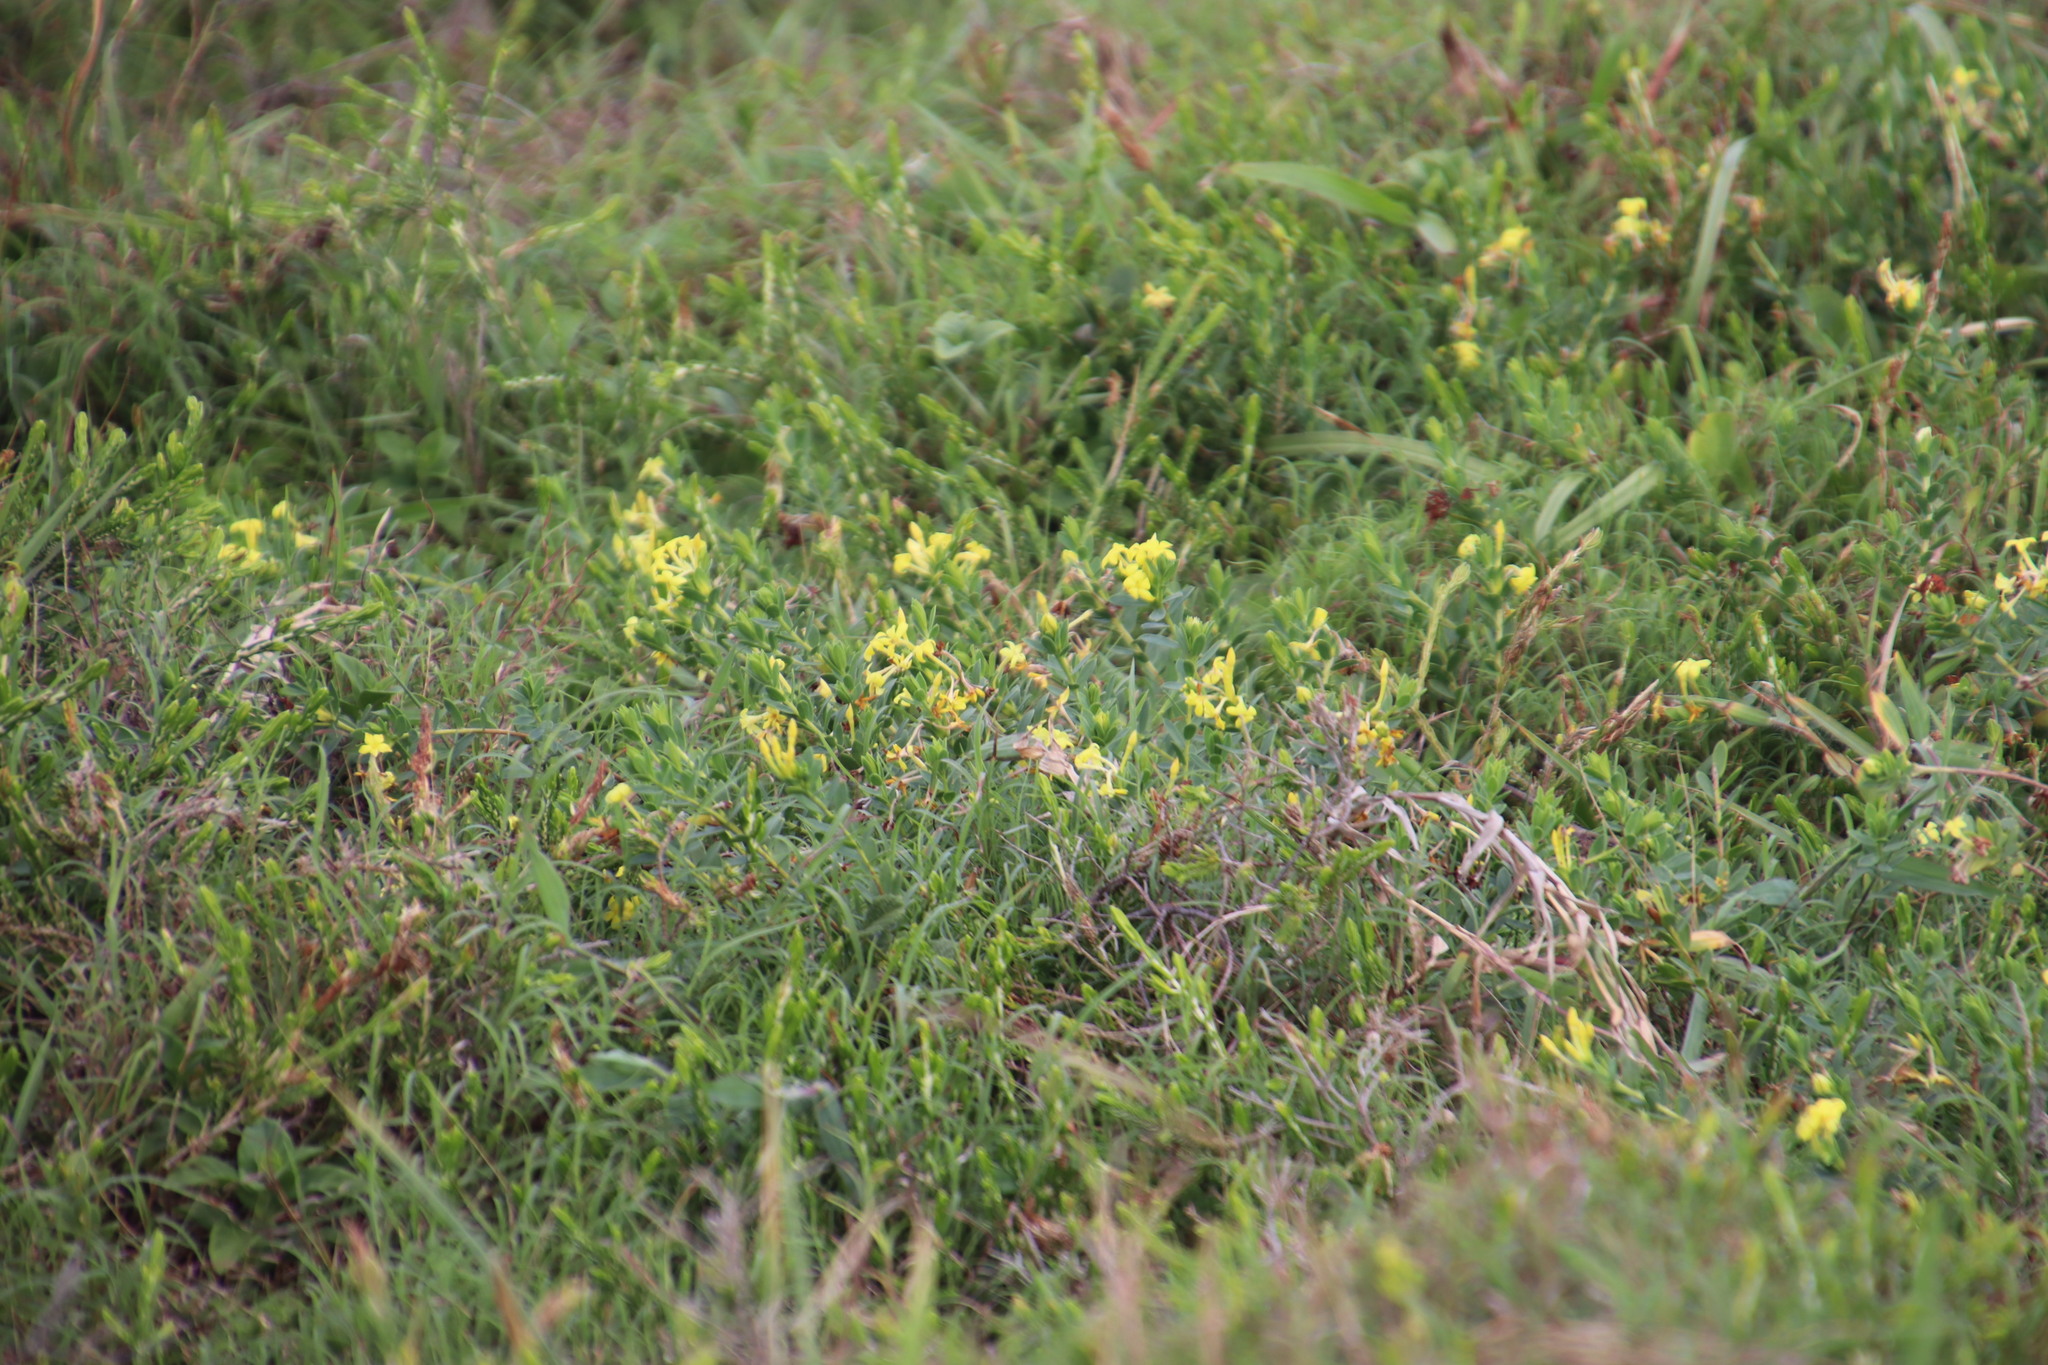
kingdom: Plantae
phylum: Tracheophyta
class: Magnoliopsida
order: Malvales
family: Thymelaeaceae
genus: Gnidia
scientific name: Gnidia triplinervis
